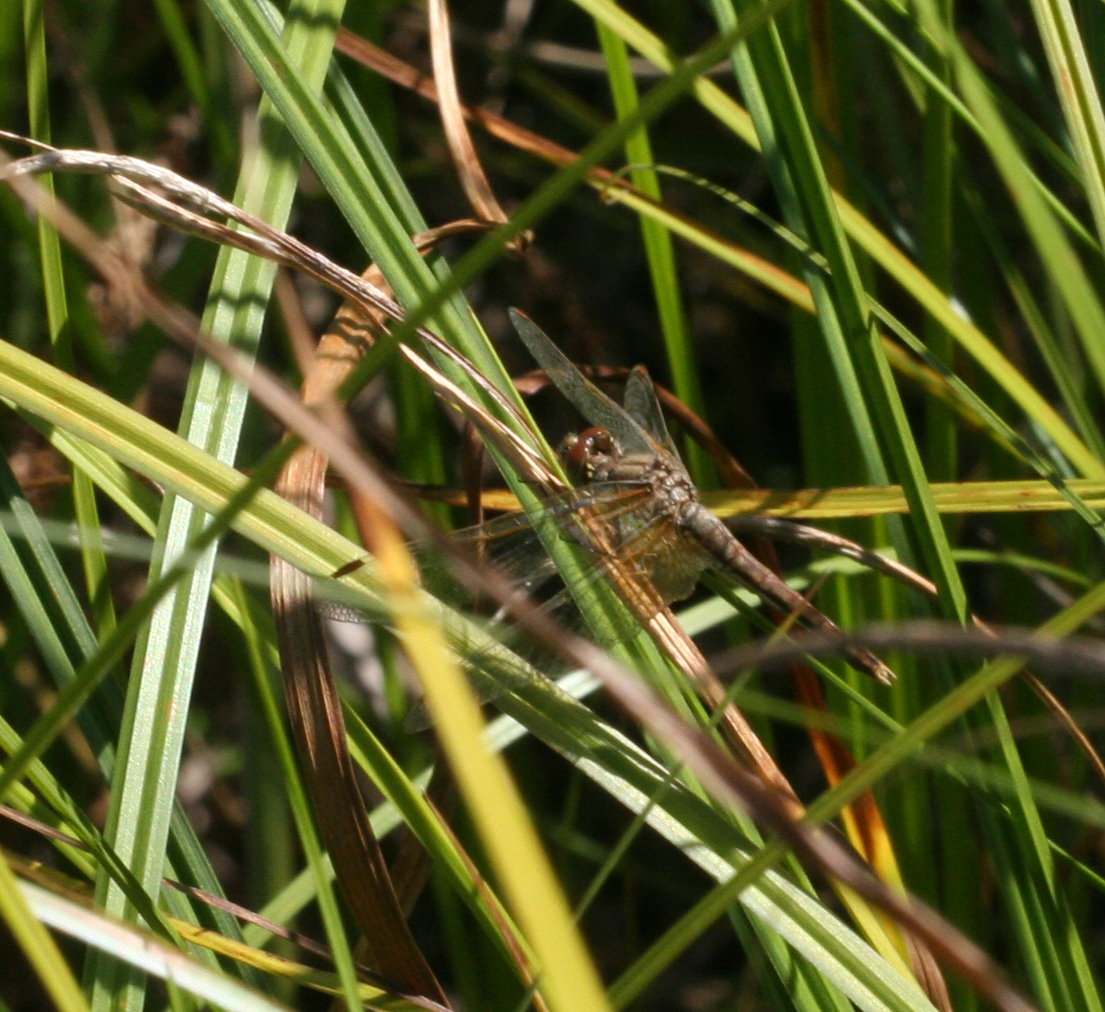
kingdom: Animalia
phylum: Arthropoda
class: Insecta
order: Odonata
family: Libellulidae
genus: Sympetrum
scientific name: Sympetrum flaveolum
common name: Yellow-winged darter
